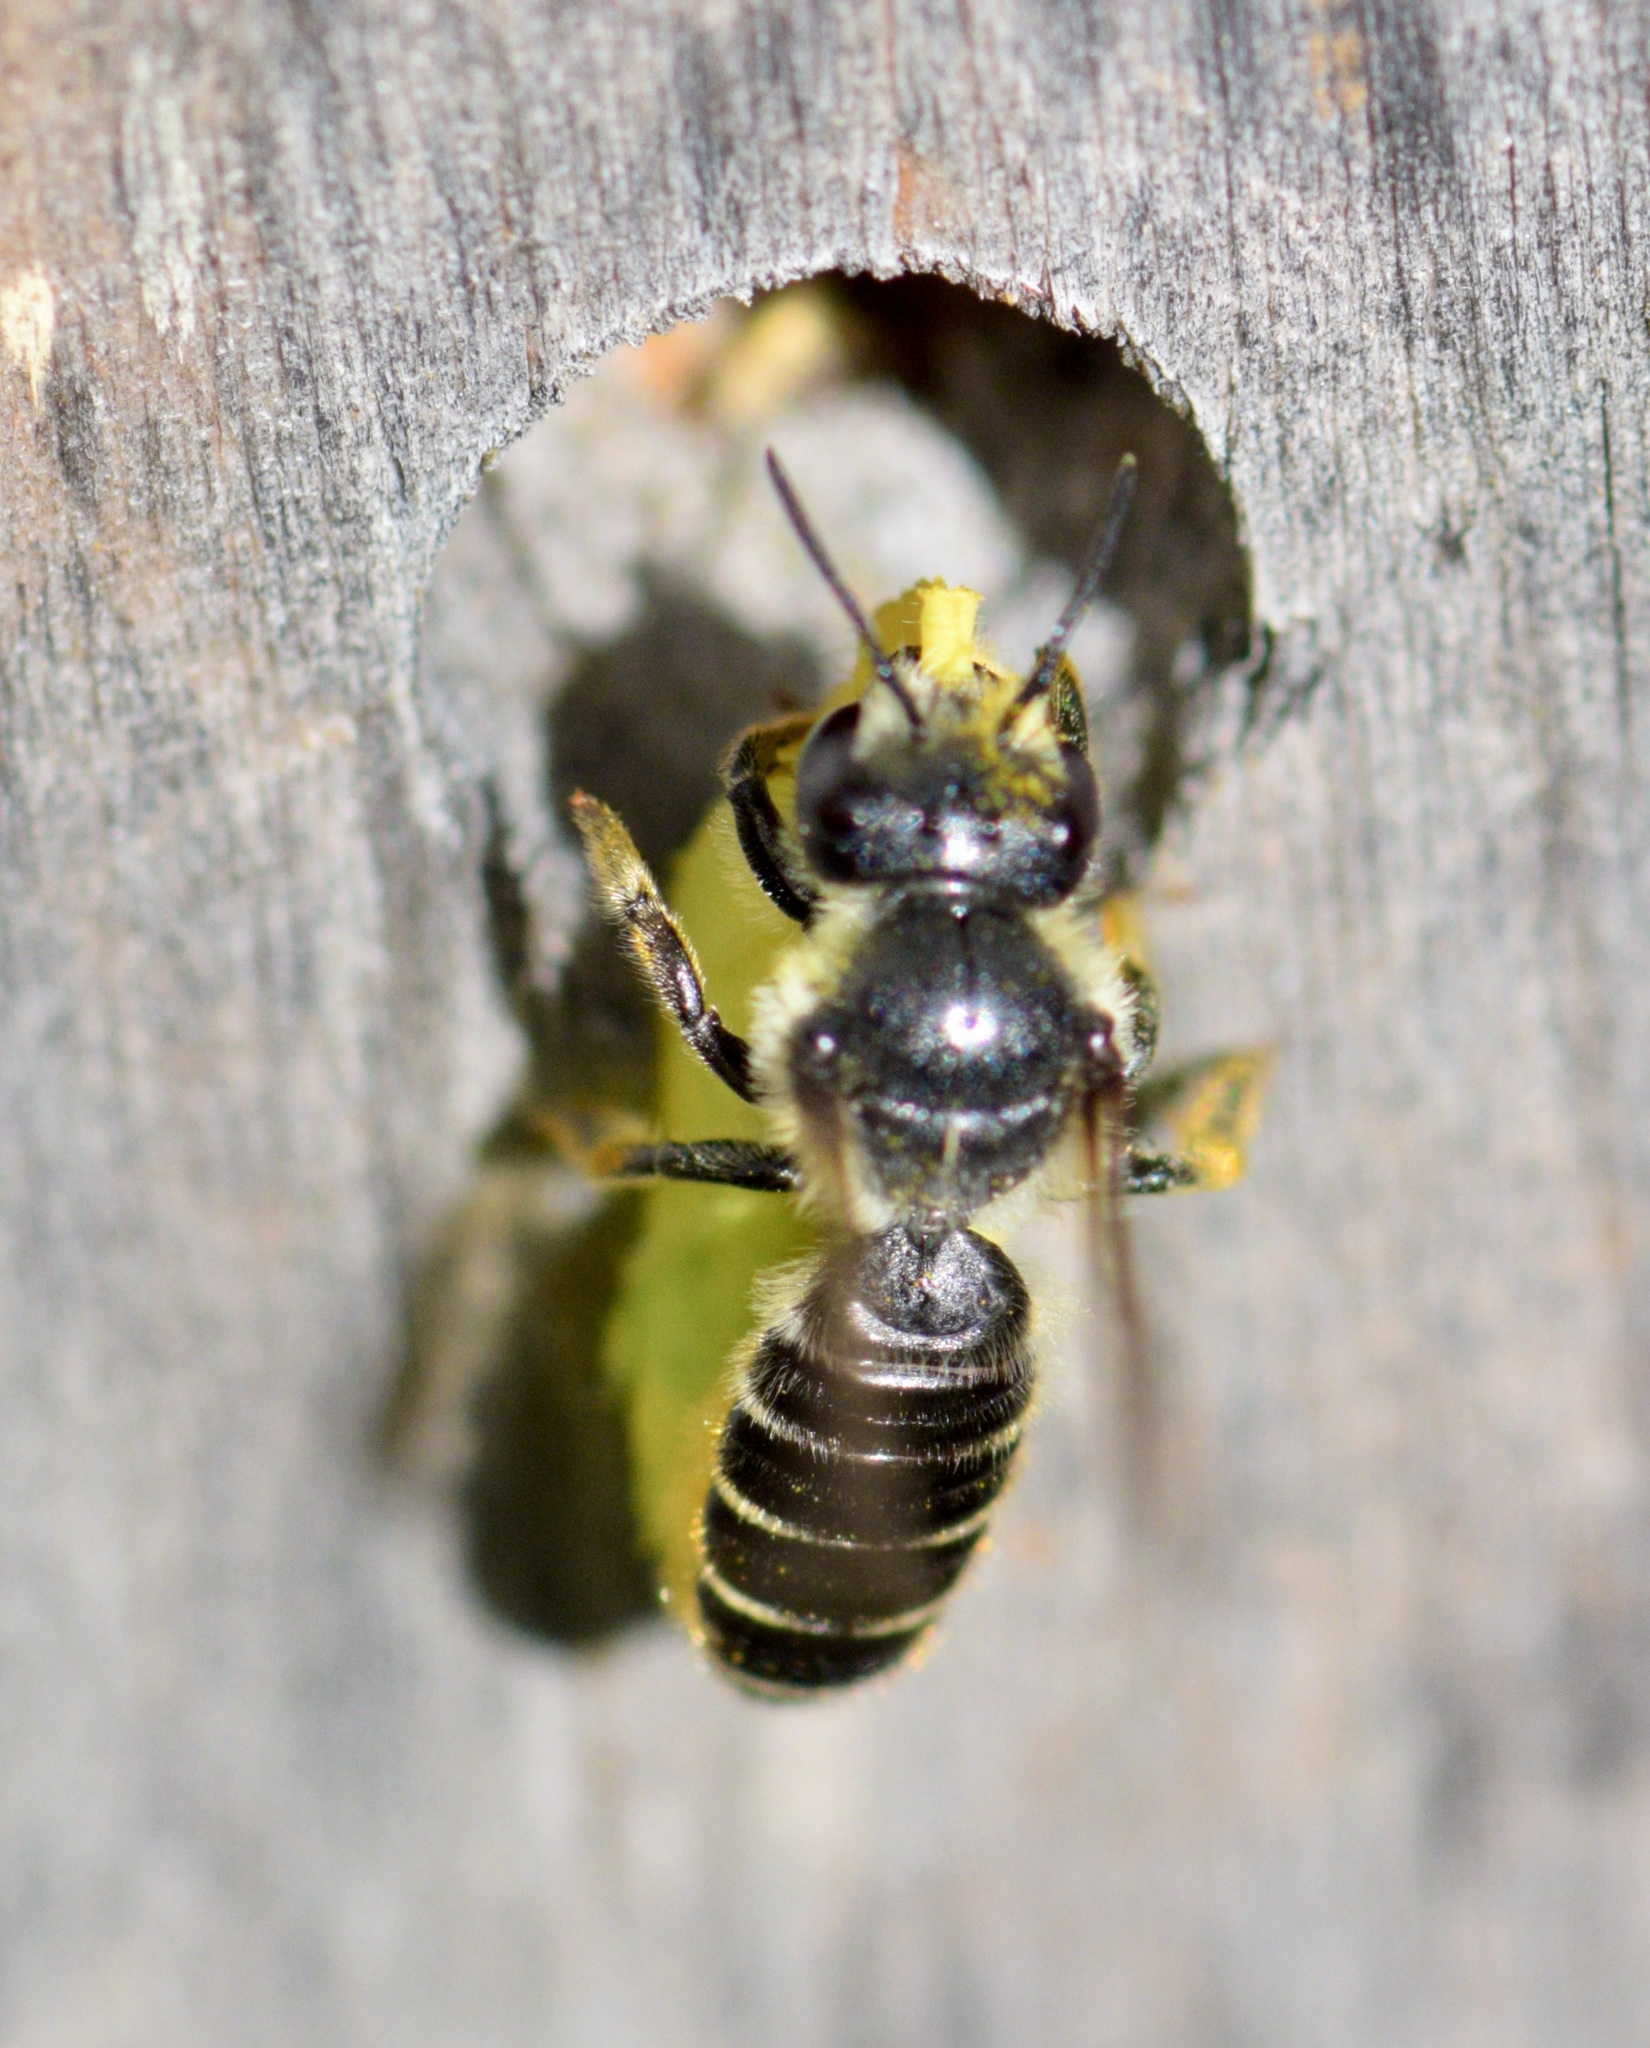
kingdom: Animalia
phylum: Arthropoda
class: Insecta
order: Hymenoptera
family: Megachilidae
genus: Megachile
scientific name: Megachile relativa
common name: Golden-tailed leafcutter
